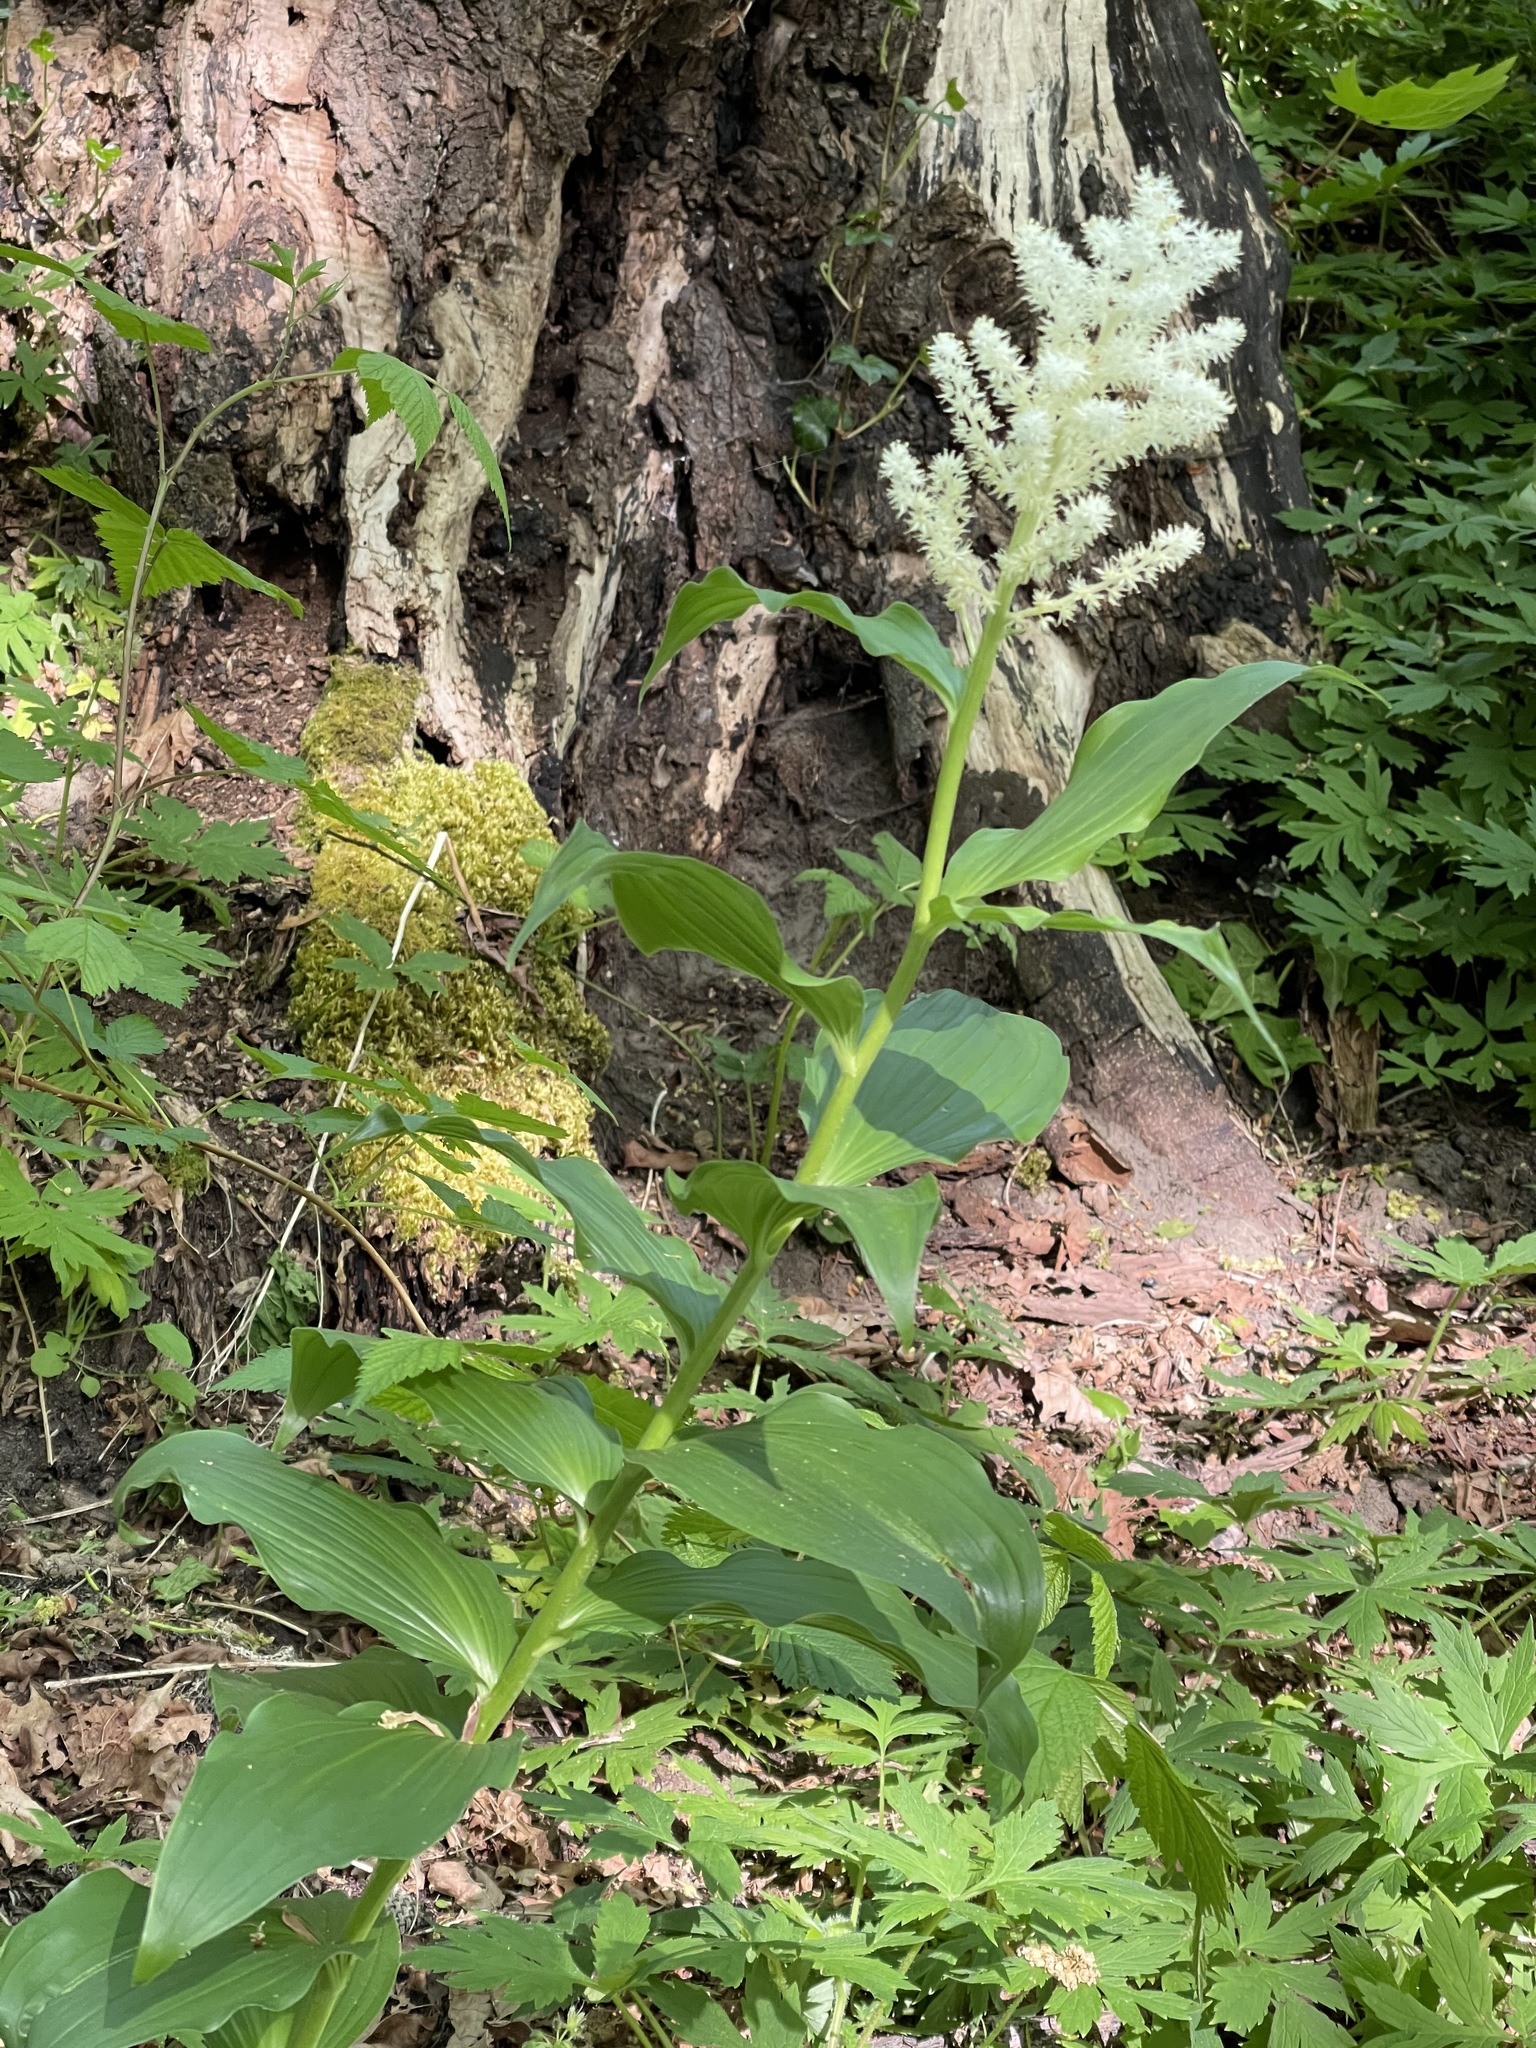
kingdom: Plantae
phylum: Tracheophyta
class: Liliopsida
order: Asparagales
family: Asparagaceae
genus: Maianthemum
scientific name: Maianthemum racemosum
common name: False spikenard
